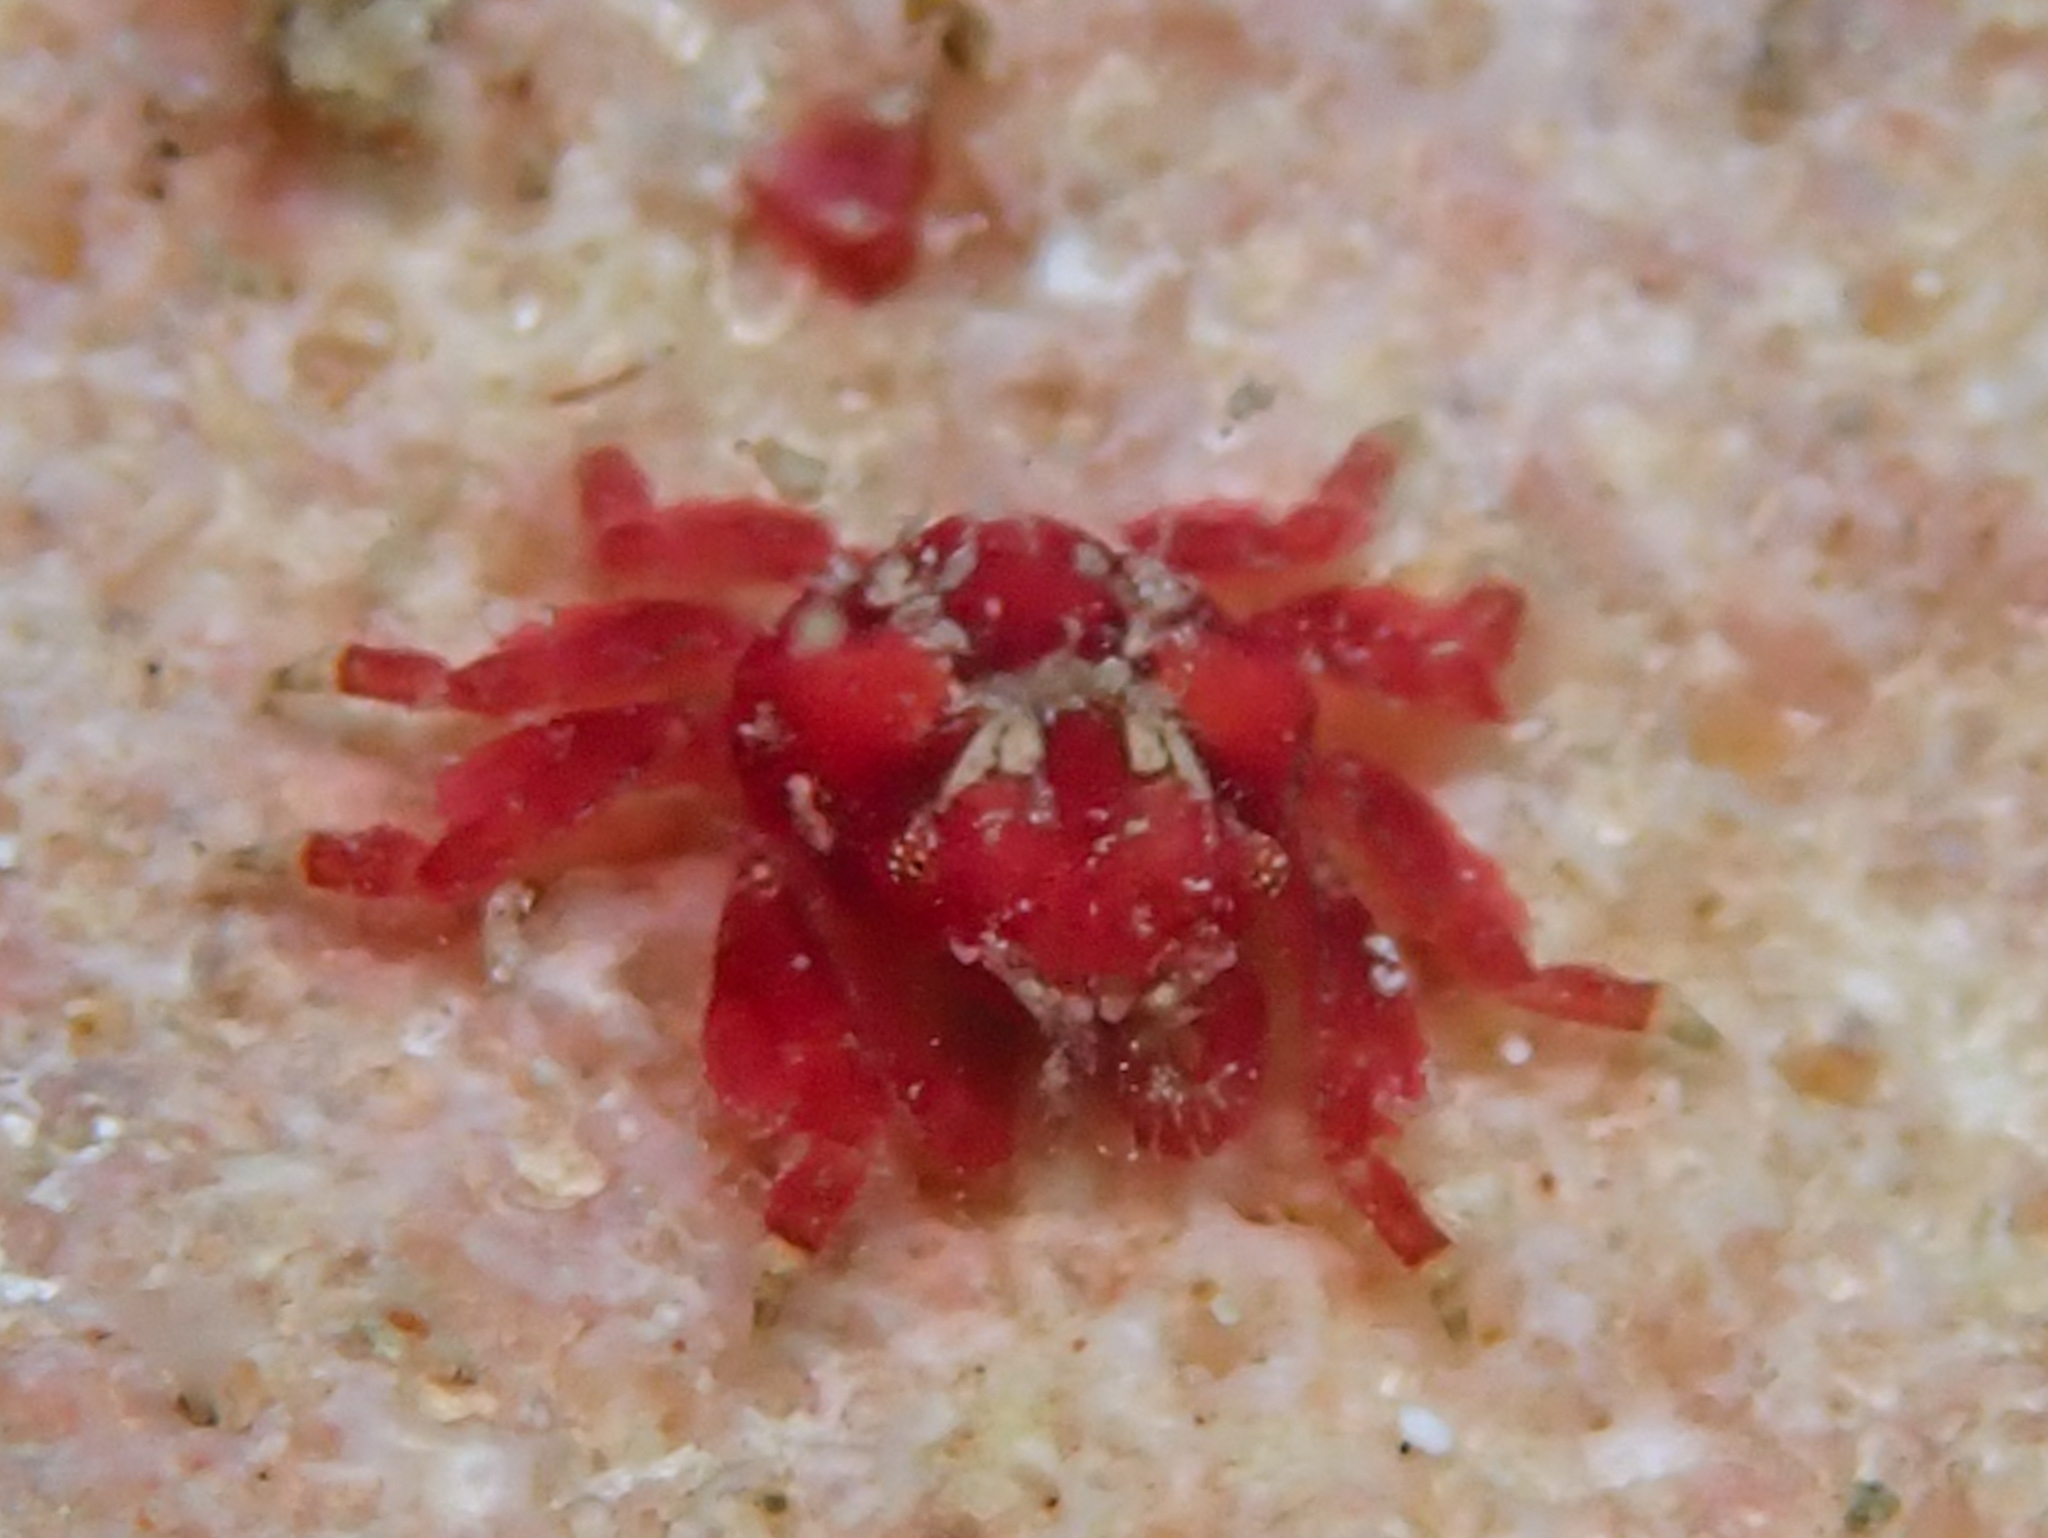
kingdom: Animalia
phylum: Arthropoda
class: Malacostraca
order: Decapoda
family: Mithracidae
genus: Thoe
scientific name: Thoe puella
